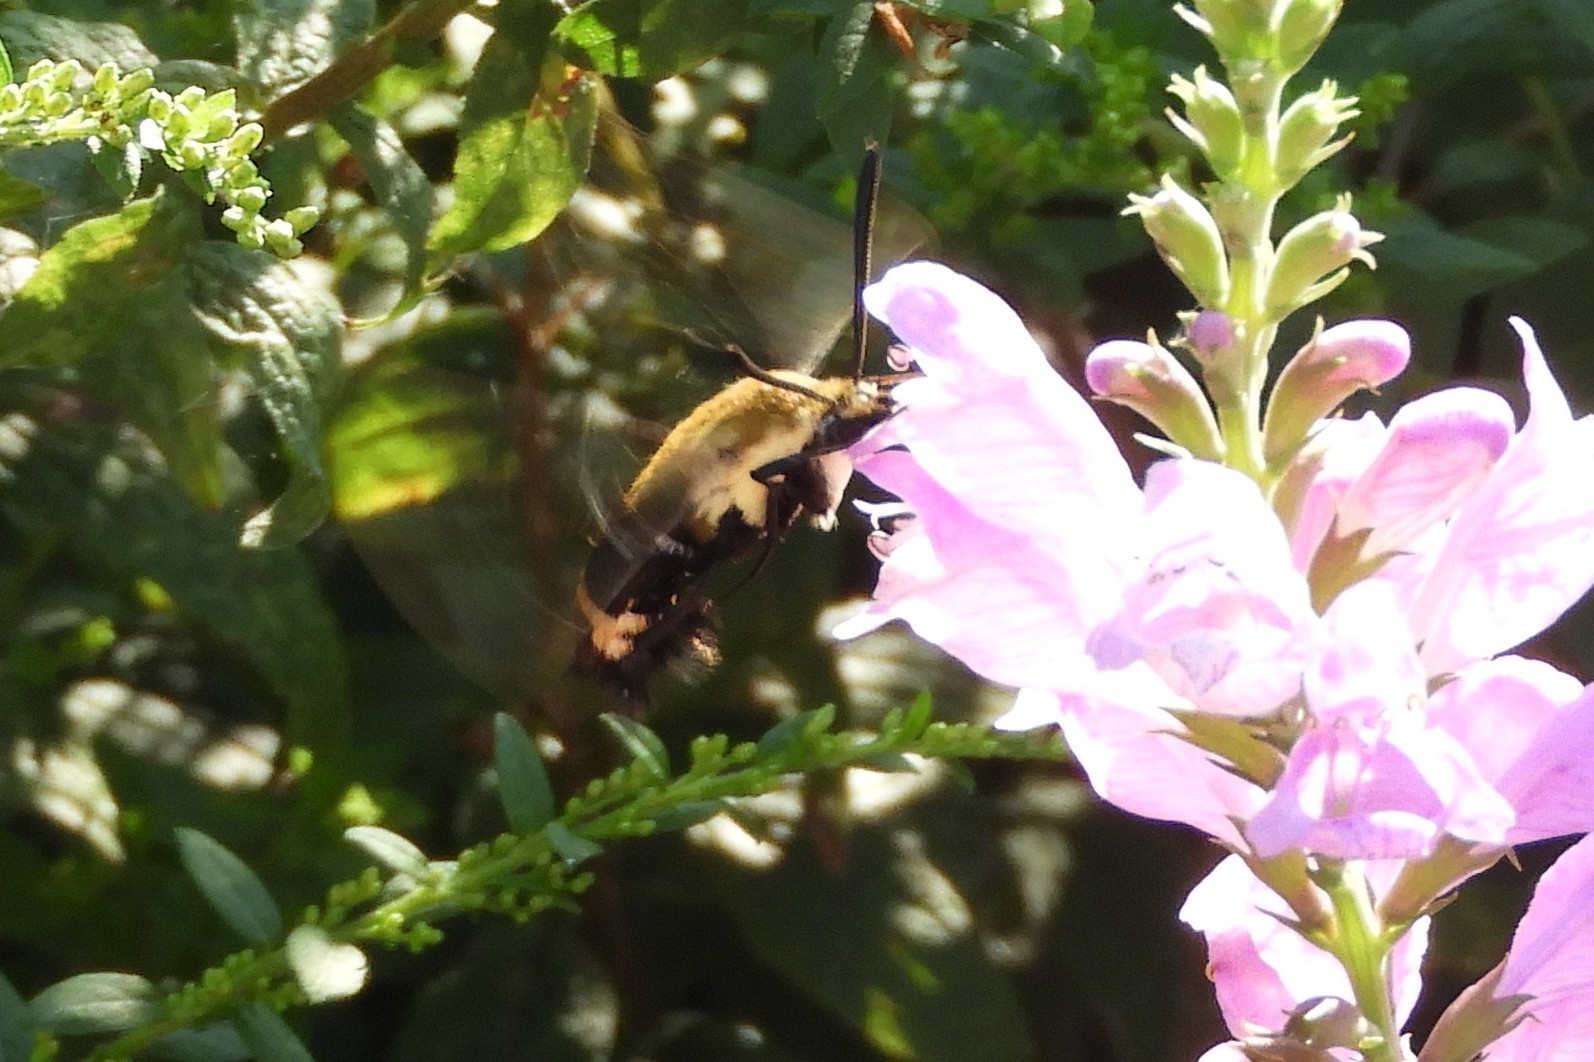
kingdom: Animalia
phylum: Arthropoda
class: Insecta
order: Lepidoptera
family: Sphingidae
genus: Hemaris
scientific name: Hemaris diffinis
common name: Bumblebee moth
